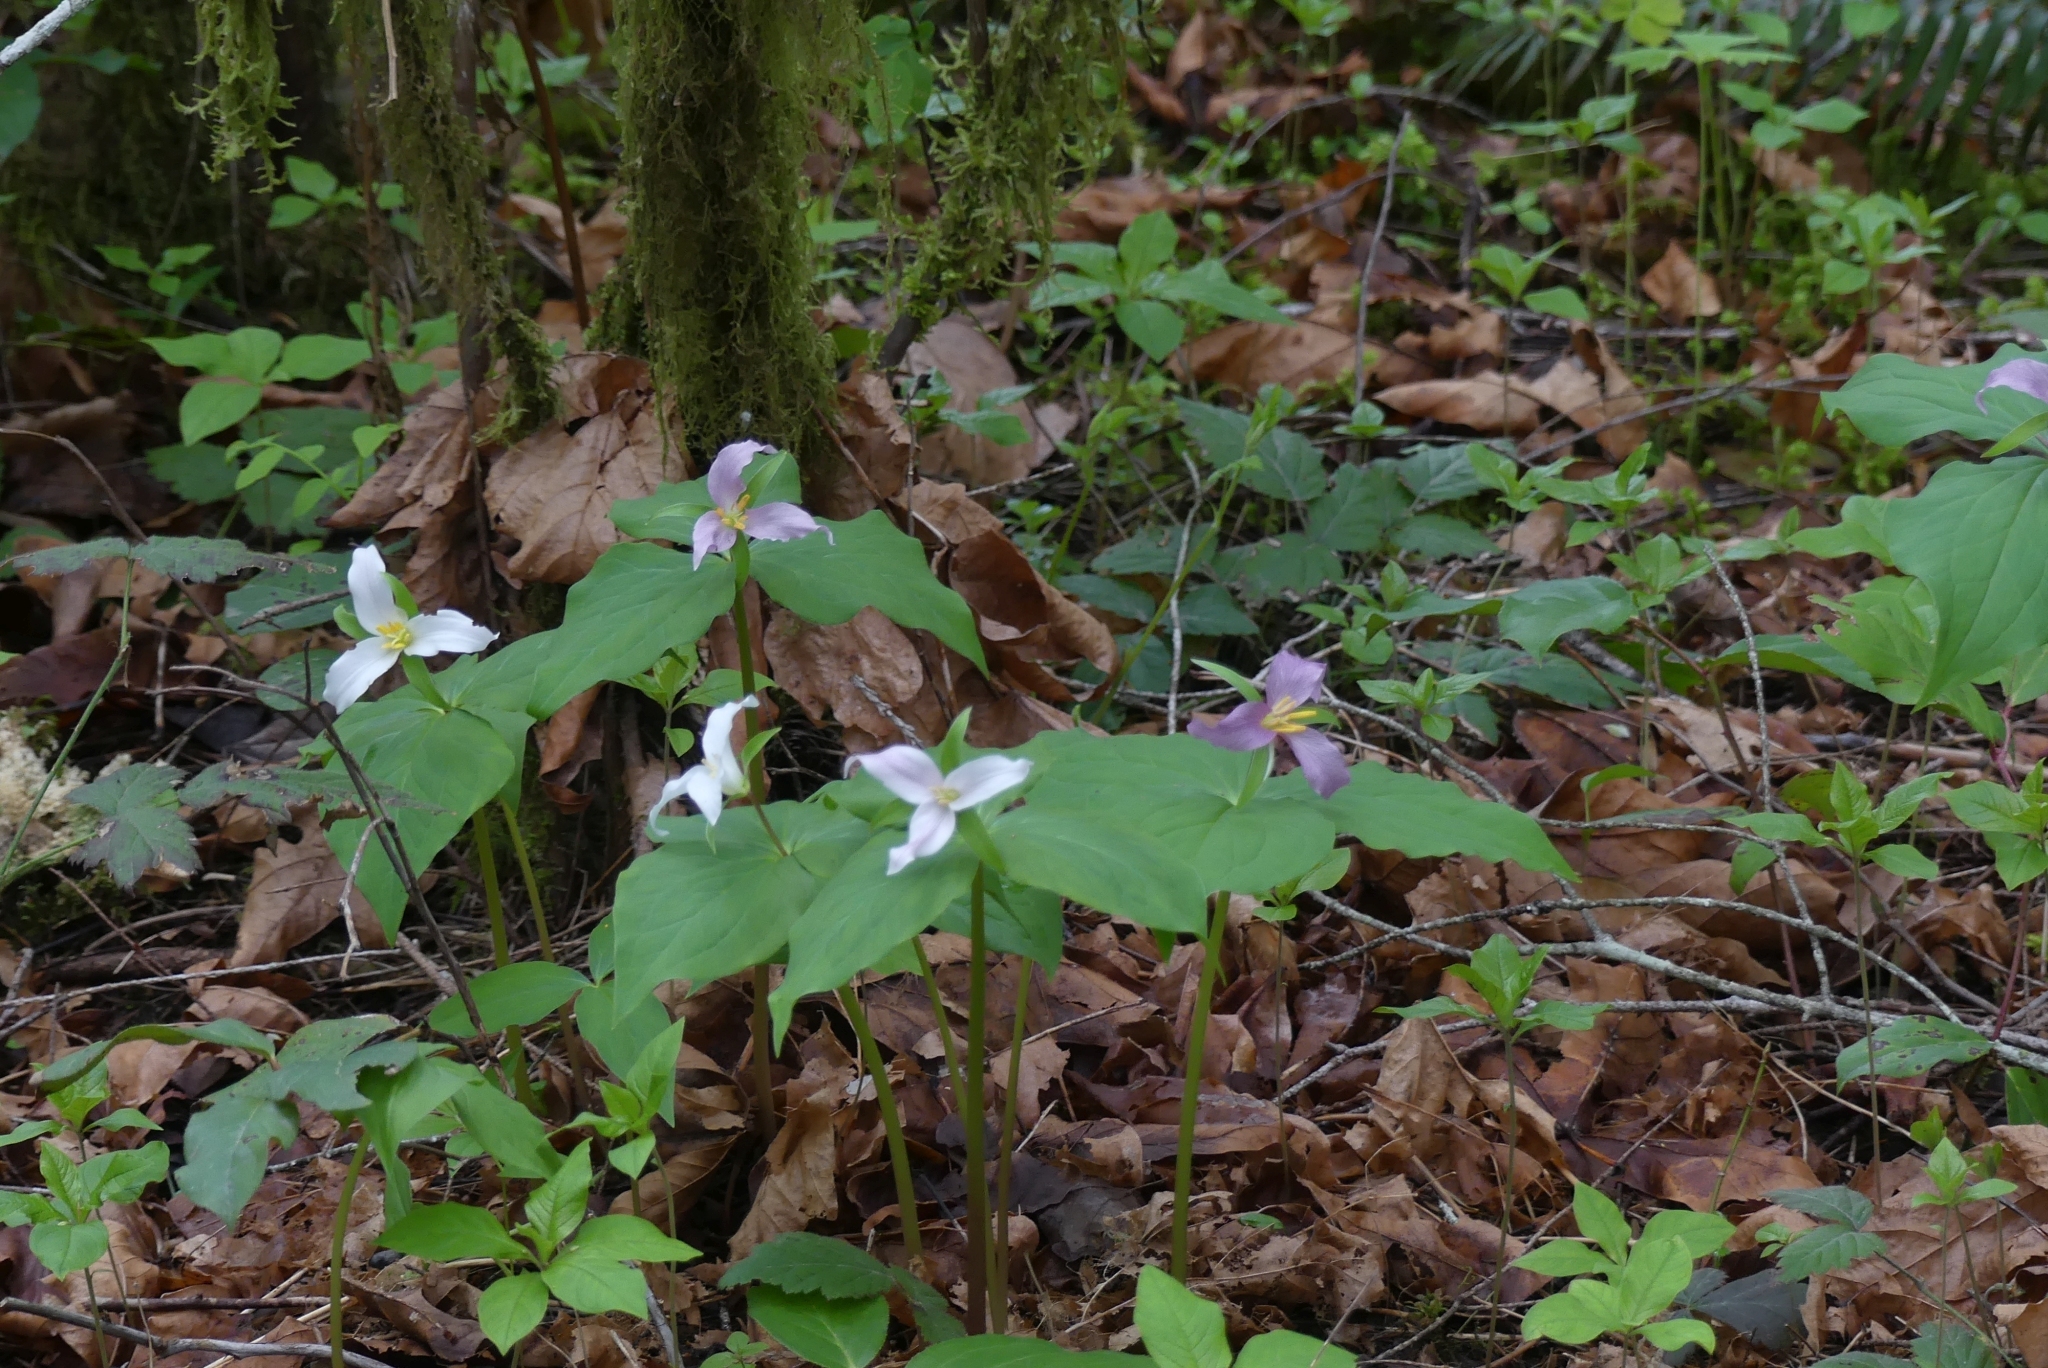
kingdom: Plantae
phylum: Tracheophyta
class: Liliopsida
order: Liliales
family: Melanthiaceae
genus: Trillium
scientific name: Trillium ovatum
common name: Pacific trillium
